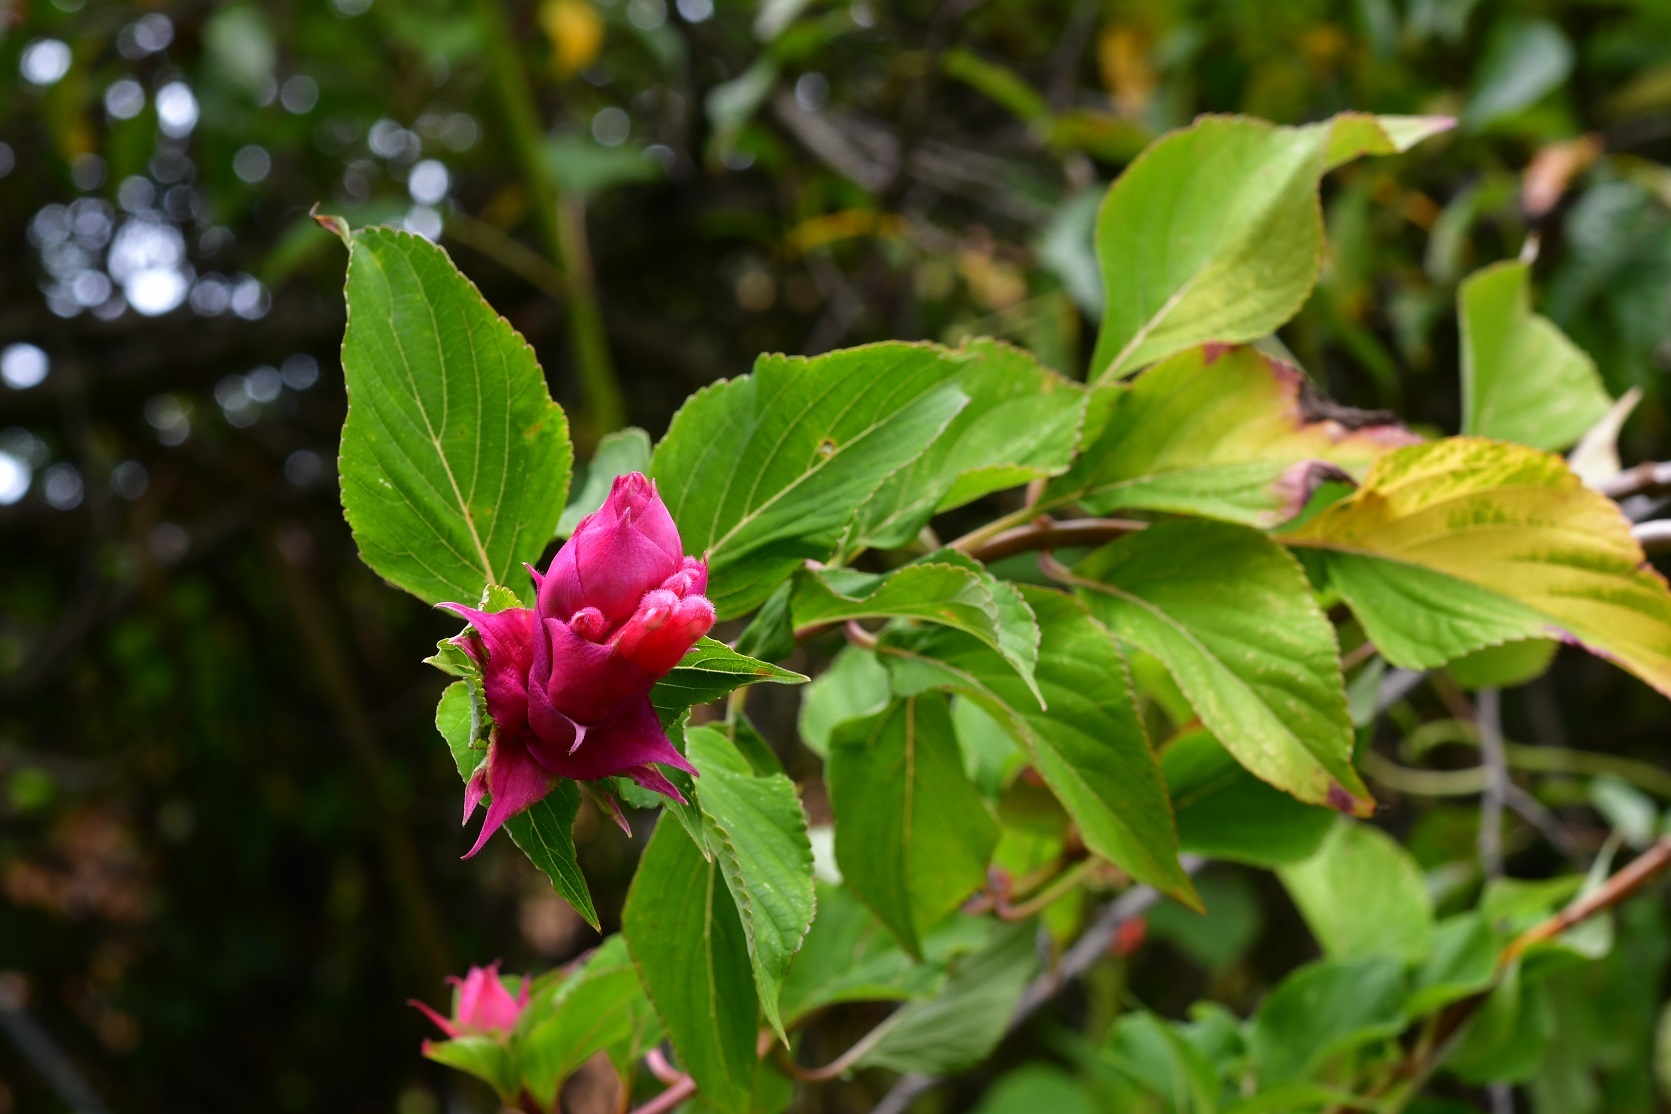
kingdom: Plantae
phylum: Tracheophyta
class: Magnoliopsida
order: Lamiales
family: Lamiaceae
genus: Salvia
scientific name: Salvia wagneriana
